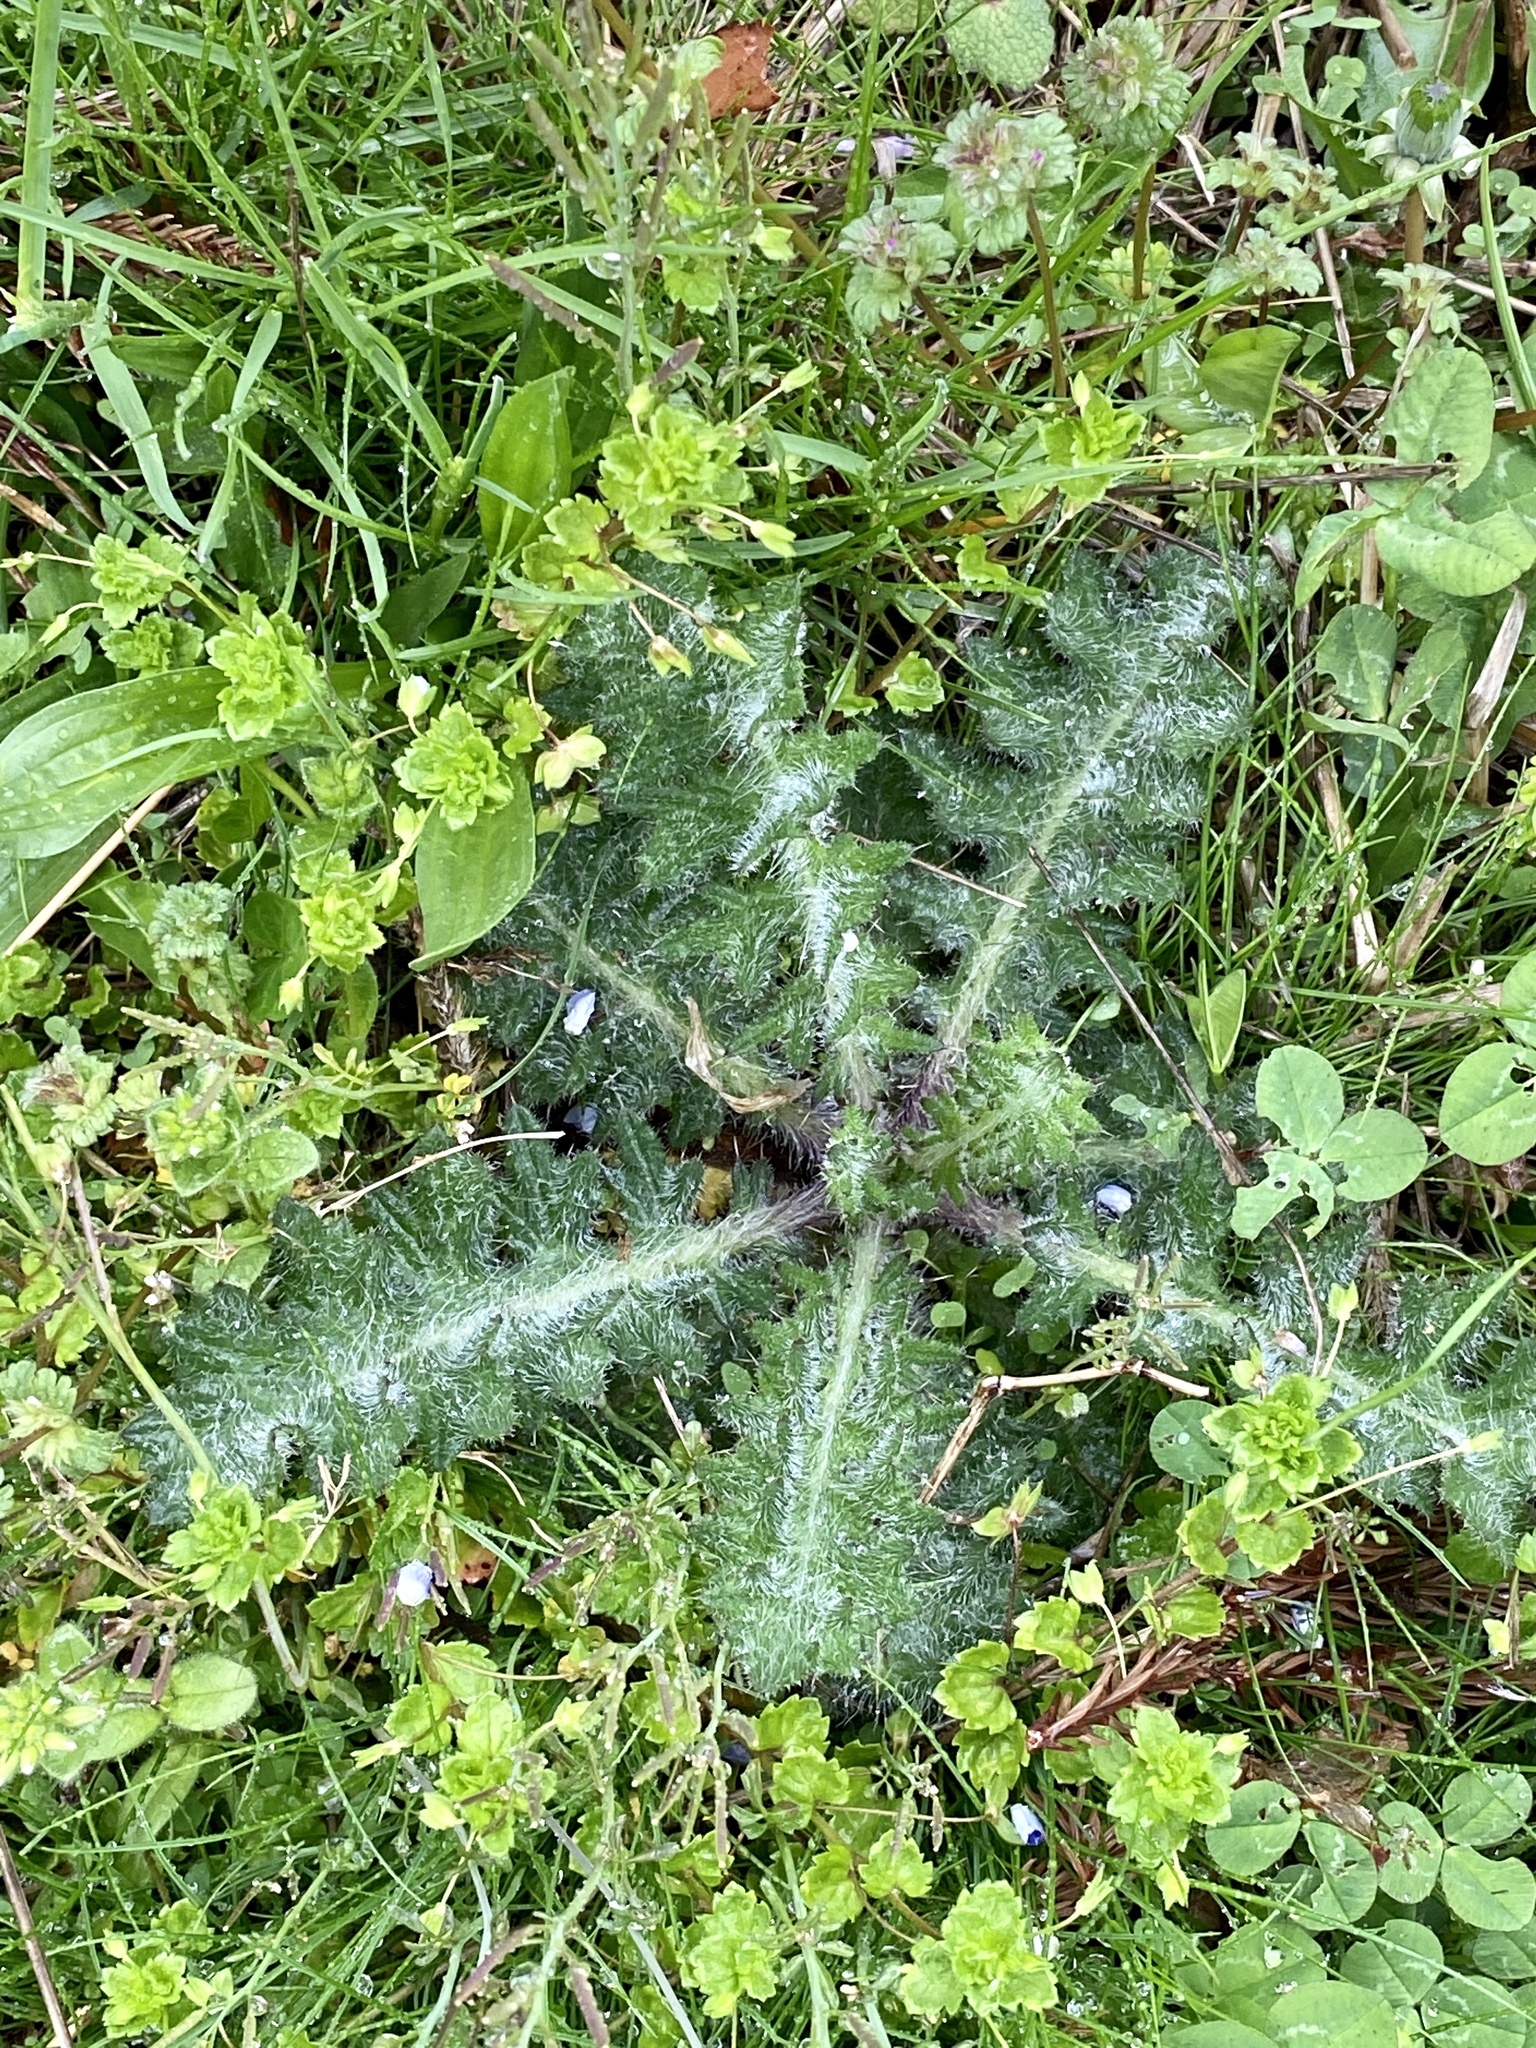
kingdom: Plantae
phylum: Tracheophyta
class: Magnoliopsida
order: Asterales
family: Asteraceae
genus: Cirsium
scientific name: Cirsium vulgare
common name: Bull thistle
